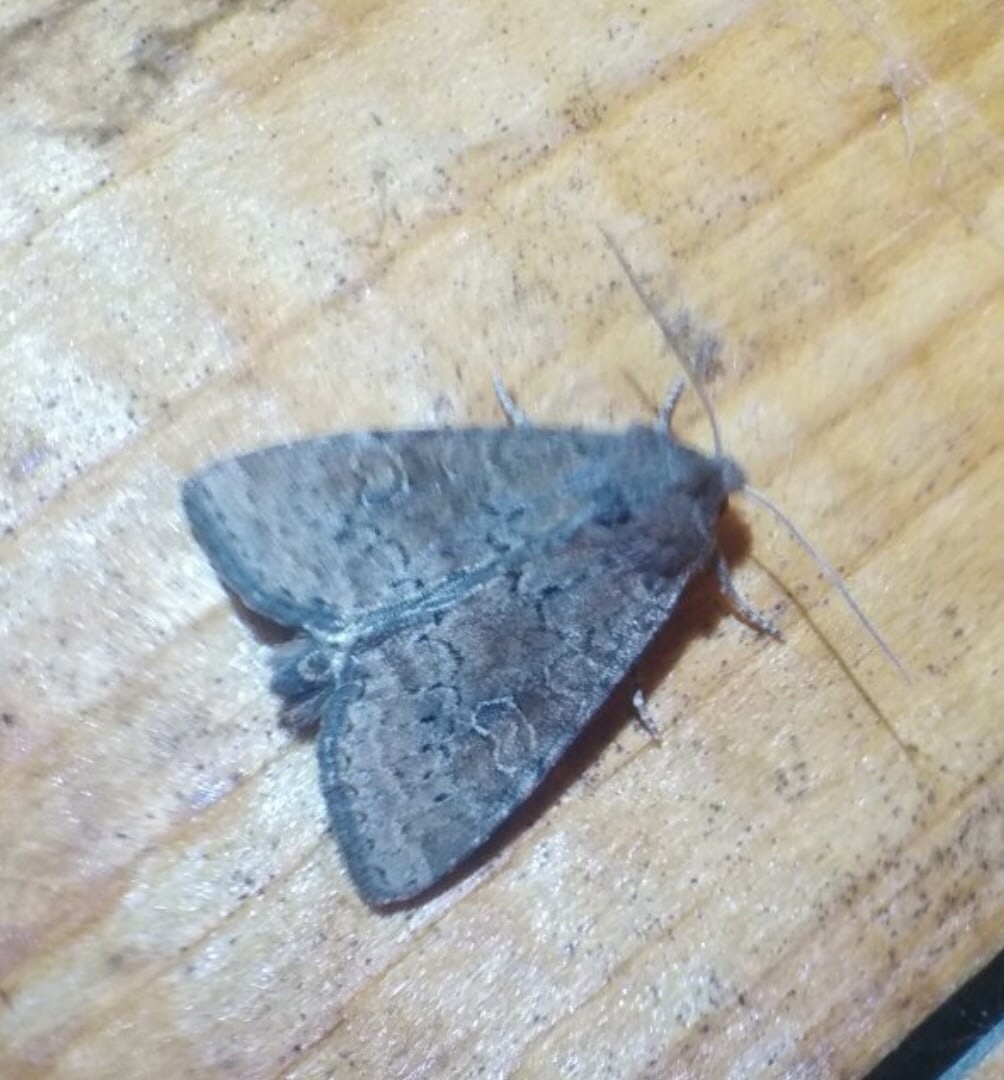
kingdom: Animalia
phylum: Arthropoda
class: Insecta
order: Lepidoptera
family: Noctuidae
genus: Parastichtis
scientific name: Parastichtis suspecta
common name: Suspected
